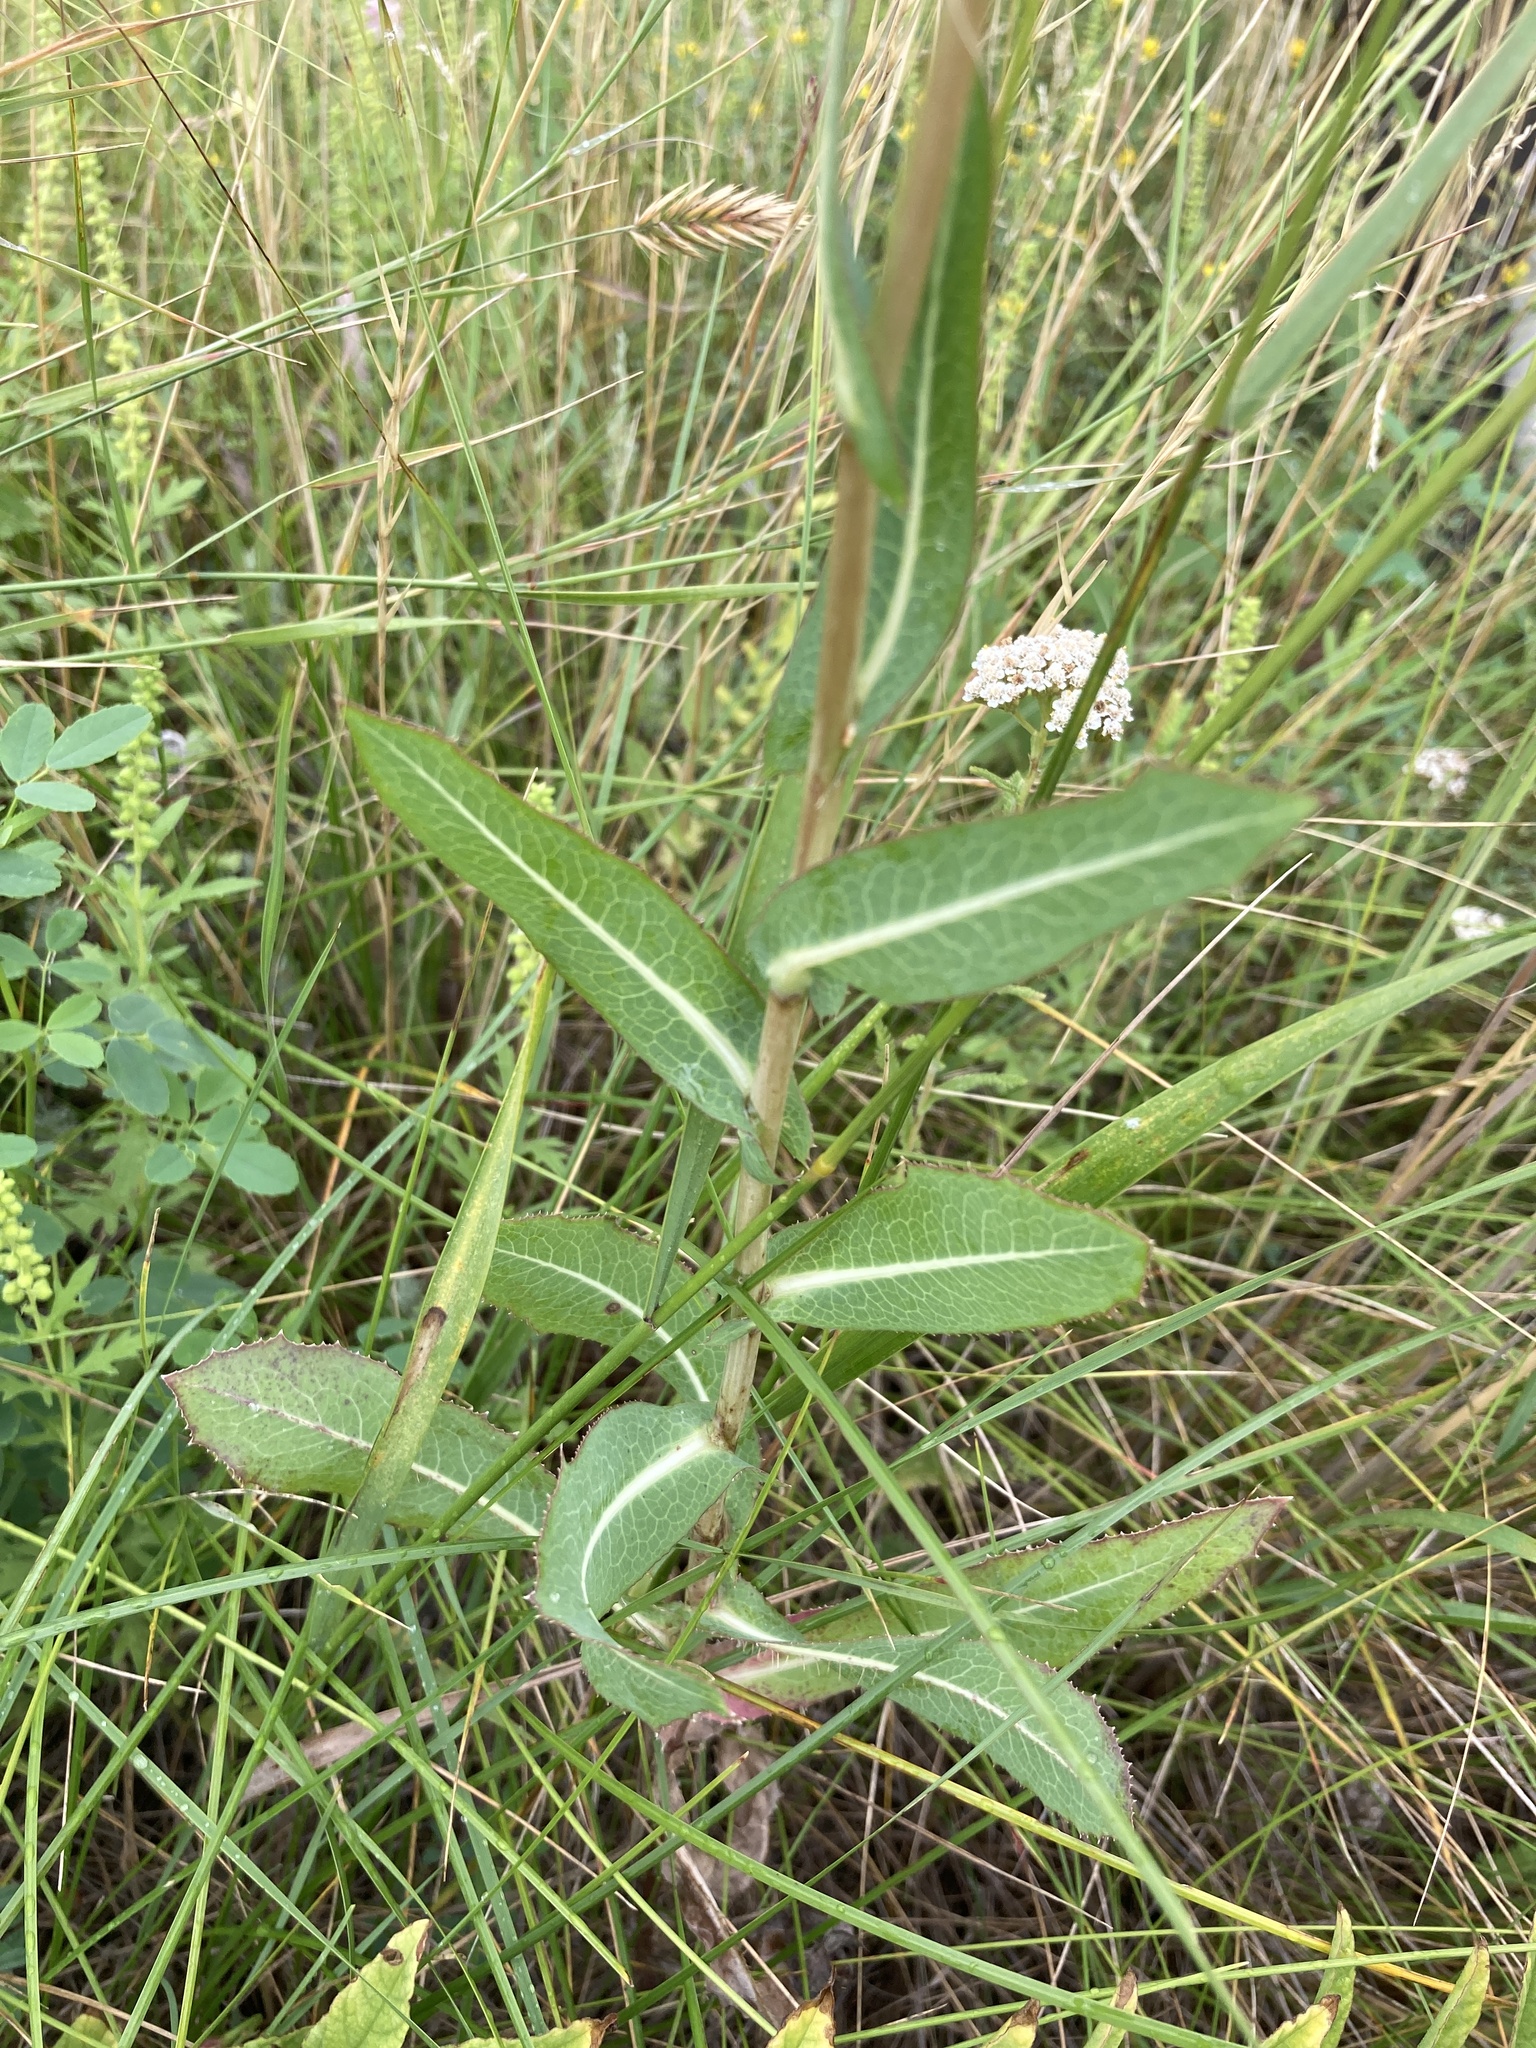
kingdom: Plantae
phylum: Tracheophyta
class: Magnoliopsida
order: Asterales
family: Asteraceae
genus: Lactuca
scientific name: Lactuca serriola
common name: Prickly lettuce
